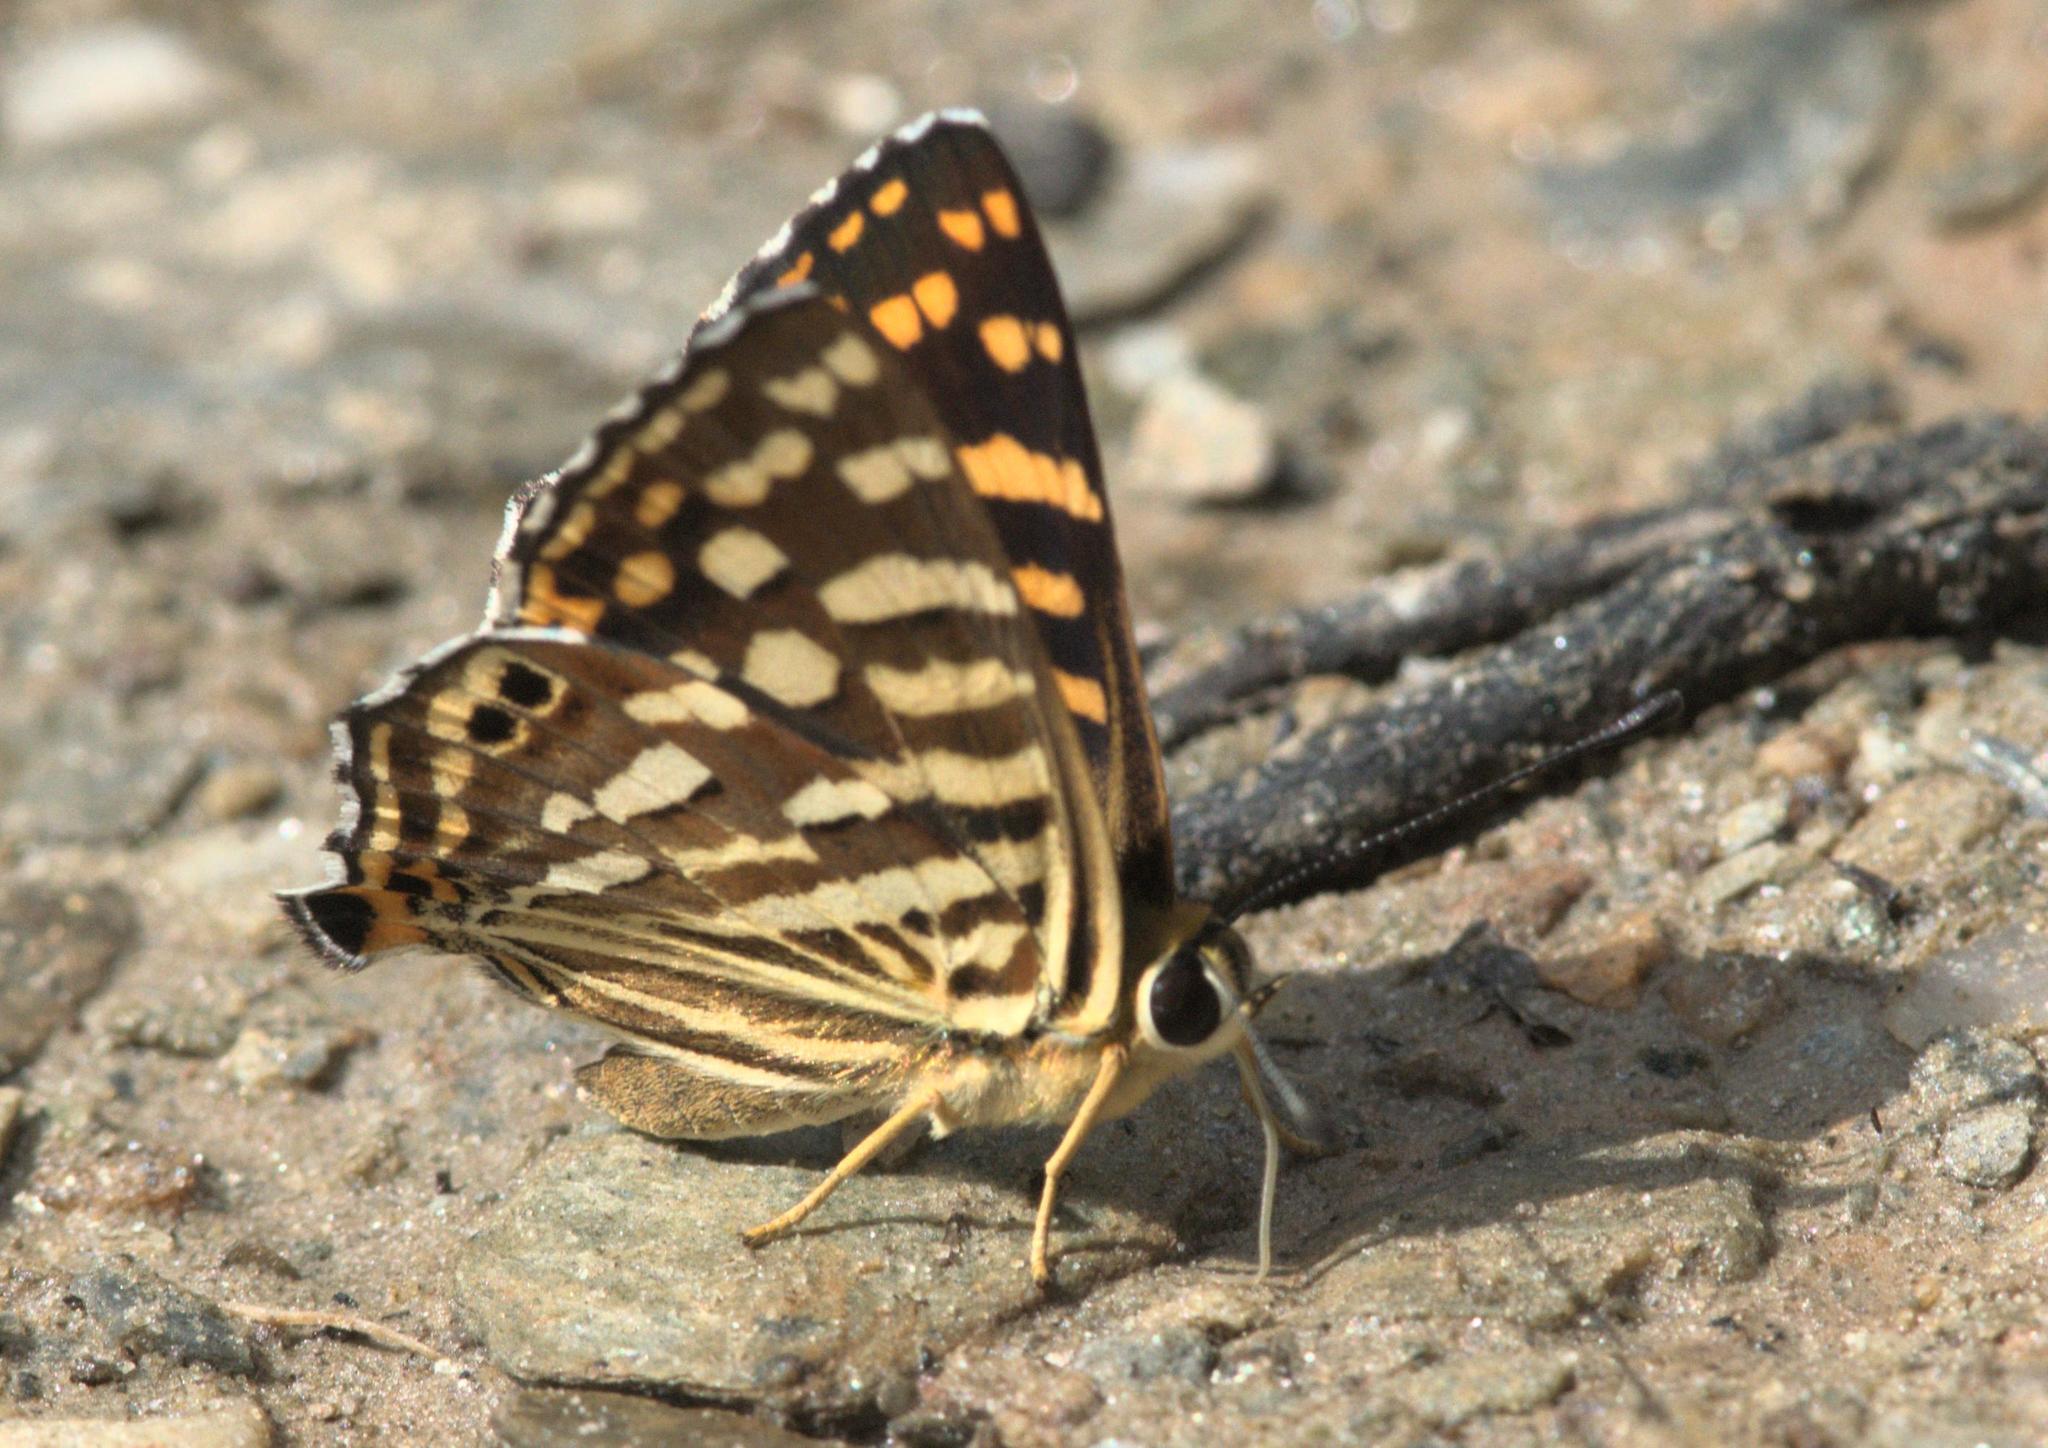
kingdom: Animalia
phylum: Arthropoda
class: Insecta
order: Lepidoptera
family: Lycaenidae
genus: Dodona
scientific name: Dodona durga
